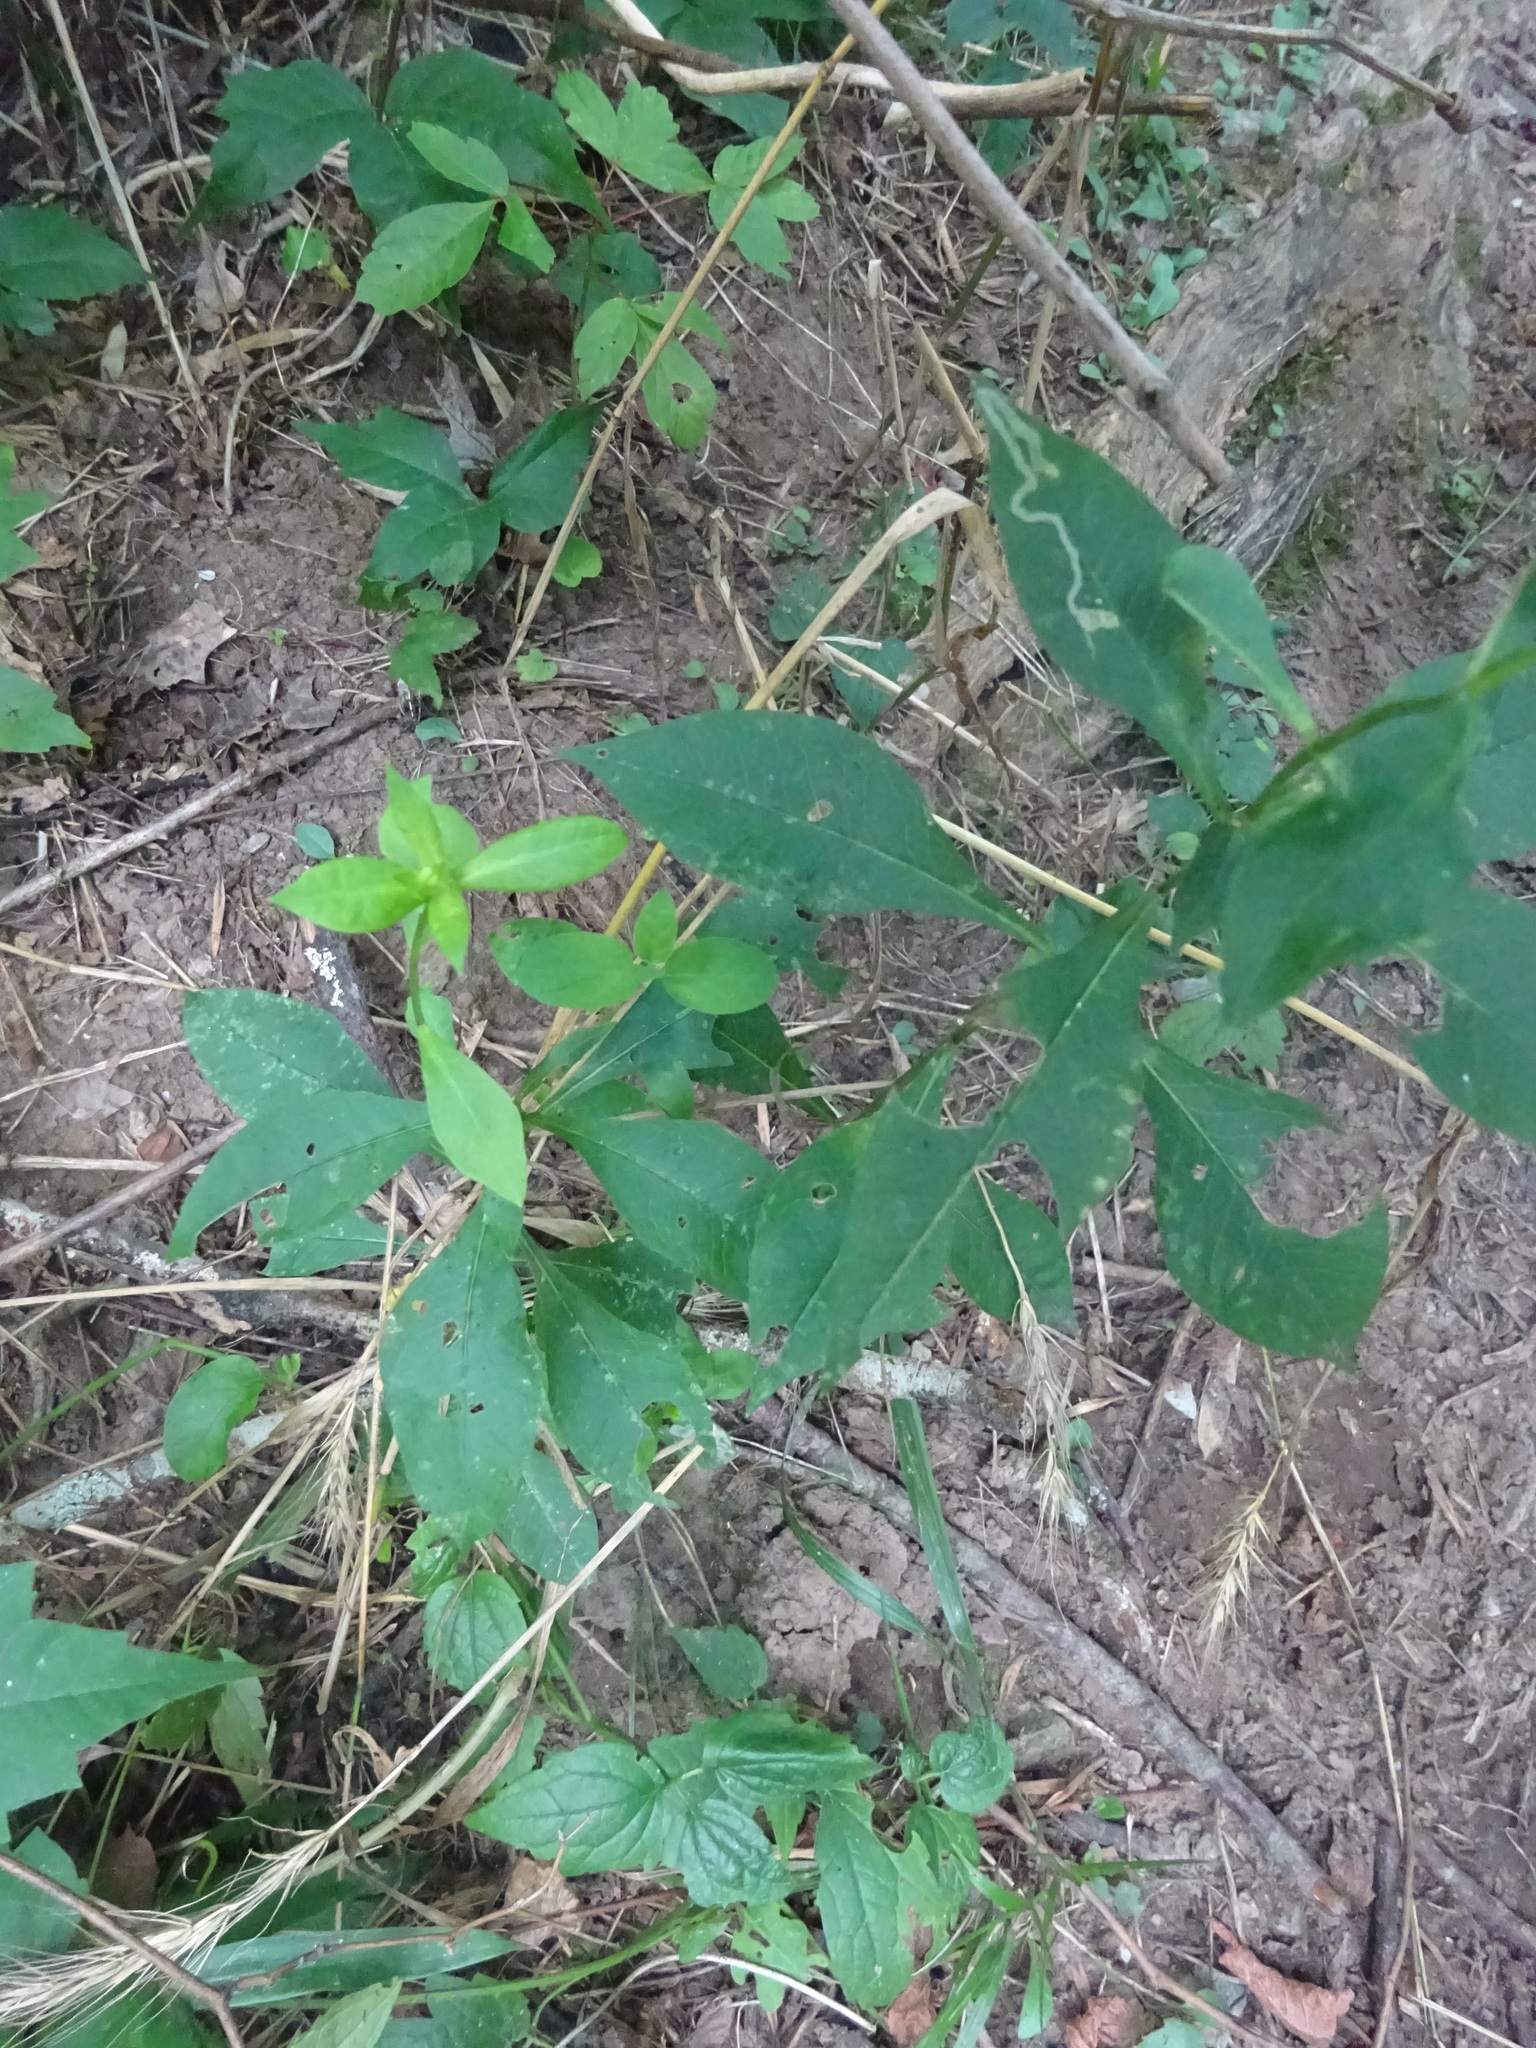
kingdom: Animalia
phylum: Arthropoda
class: Insecta
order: Diptera
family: Agromyzidae
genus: Liriomyza
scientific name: Liriomyza phloxiphaga
